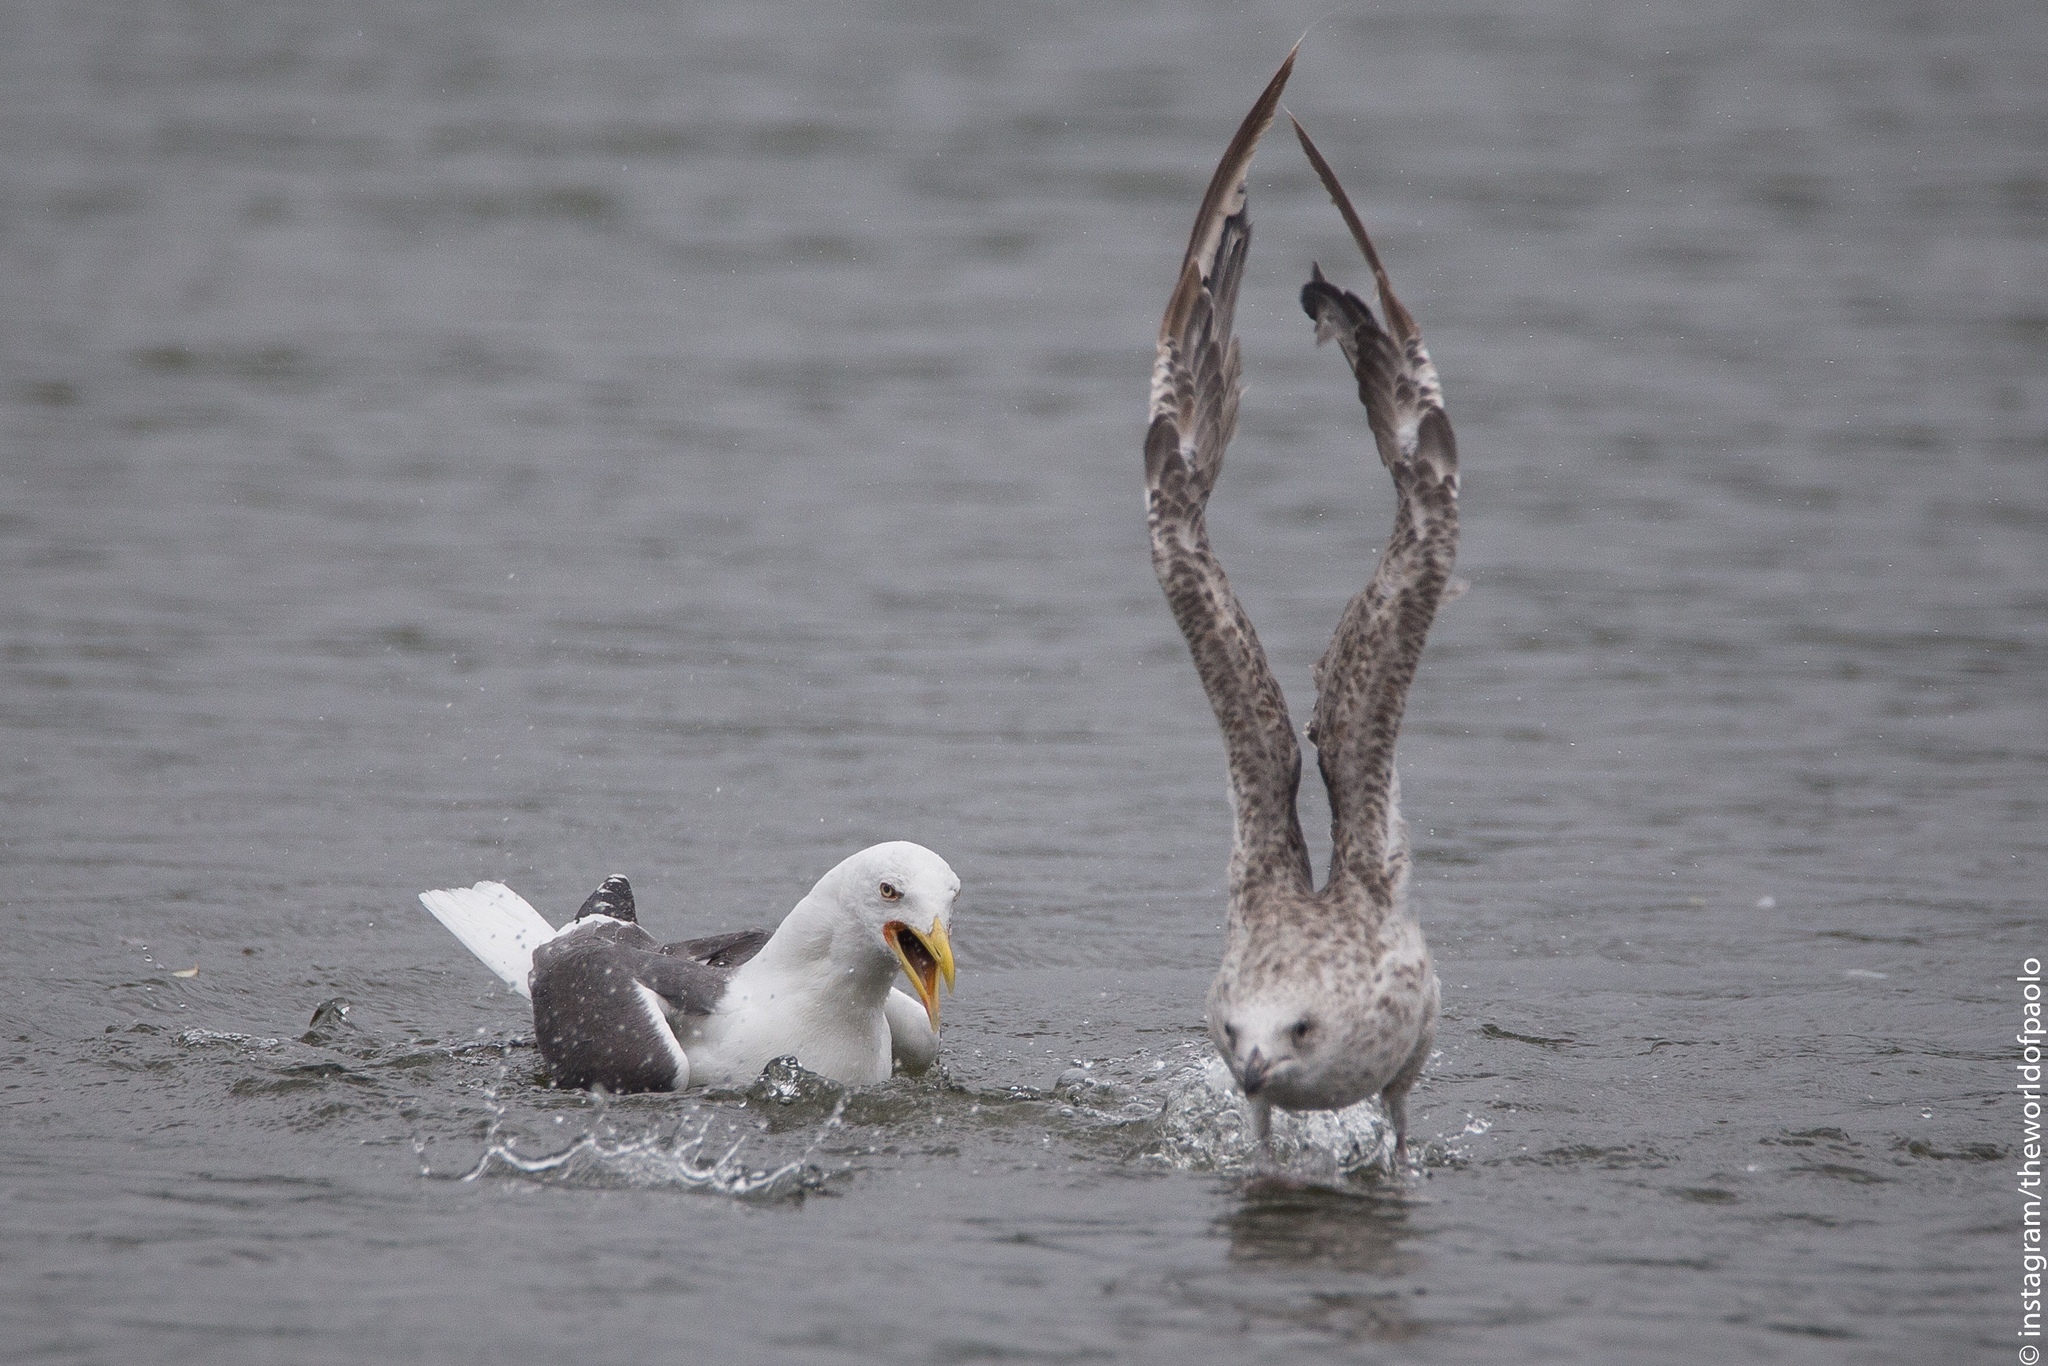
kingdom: Animalia
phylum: Chordata
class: Aves
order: Charadriiformes
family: Laridae
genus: Larus
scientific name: Larus fuscus
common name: Lesser black-backed gull
